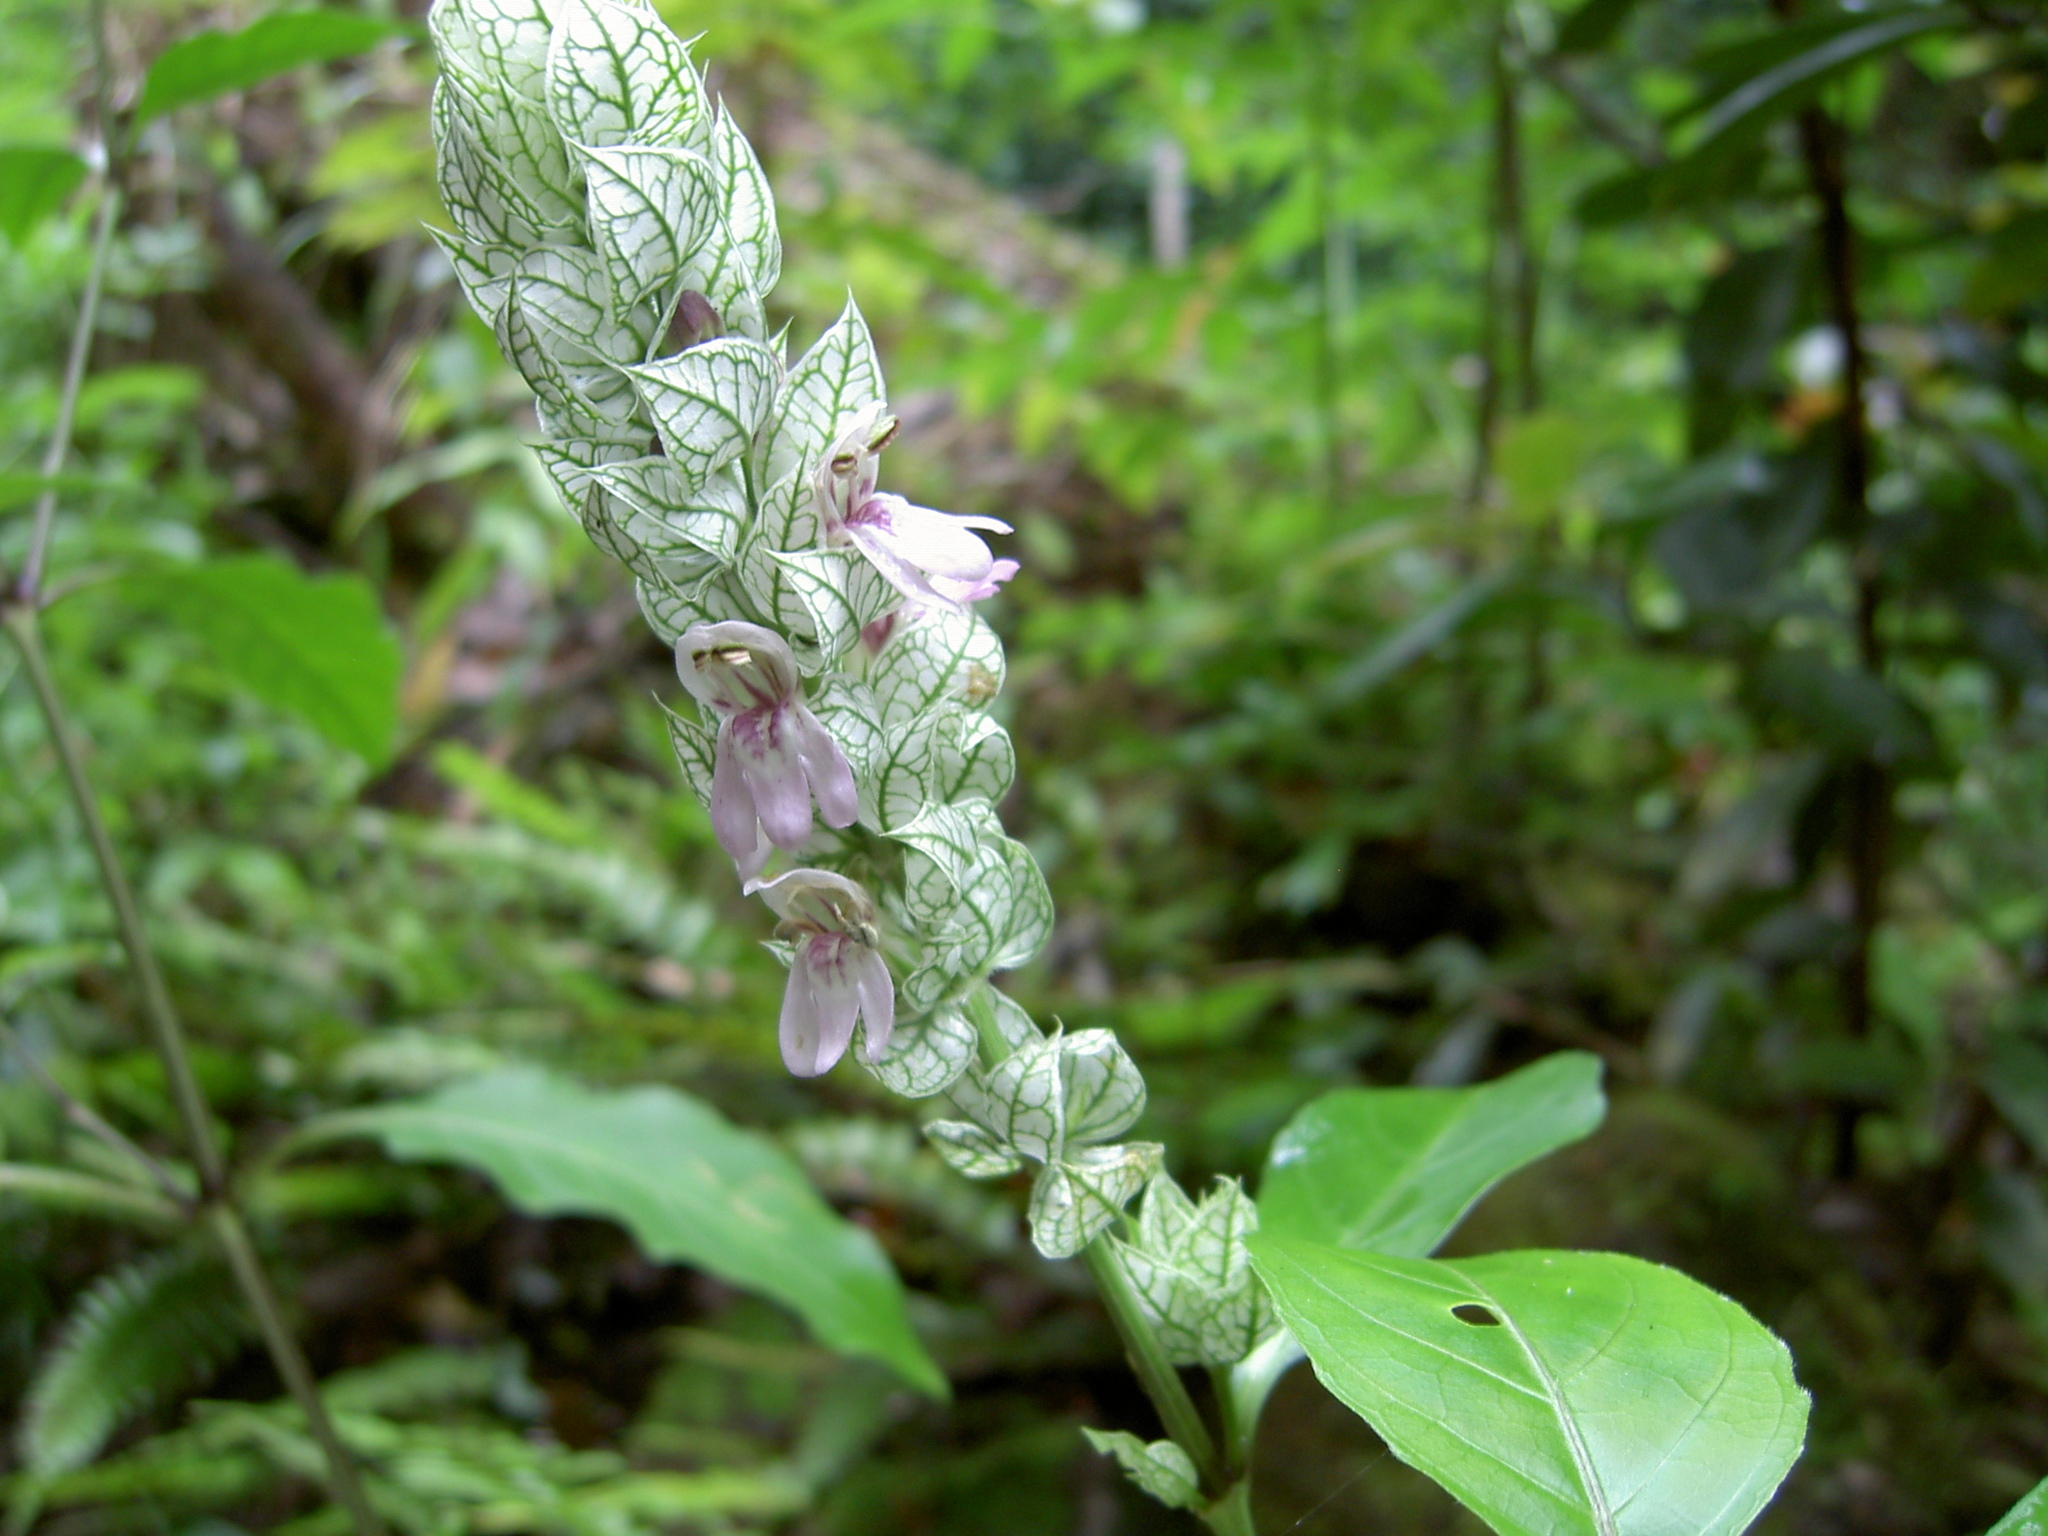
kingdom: Plantae
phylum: Tracheophyta
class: Magnoliopsida
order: Lamiales
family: Acanthaceae
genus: Justicia
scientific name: Justicia betonica
